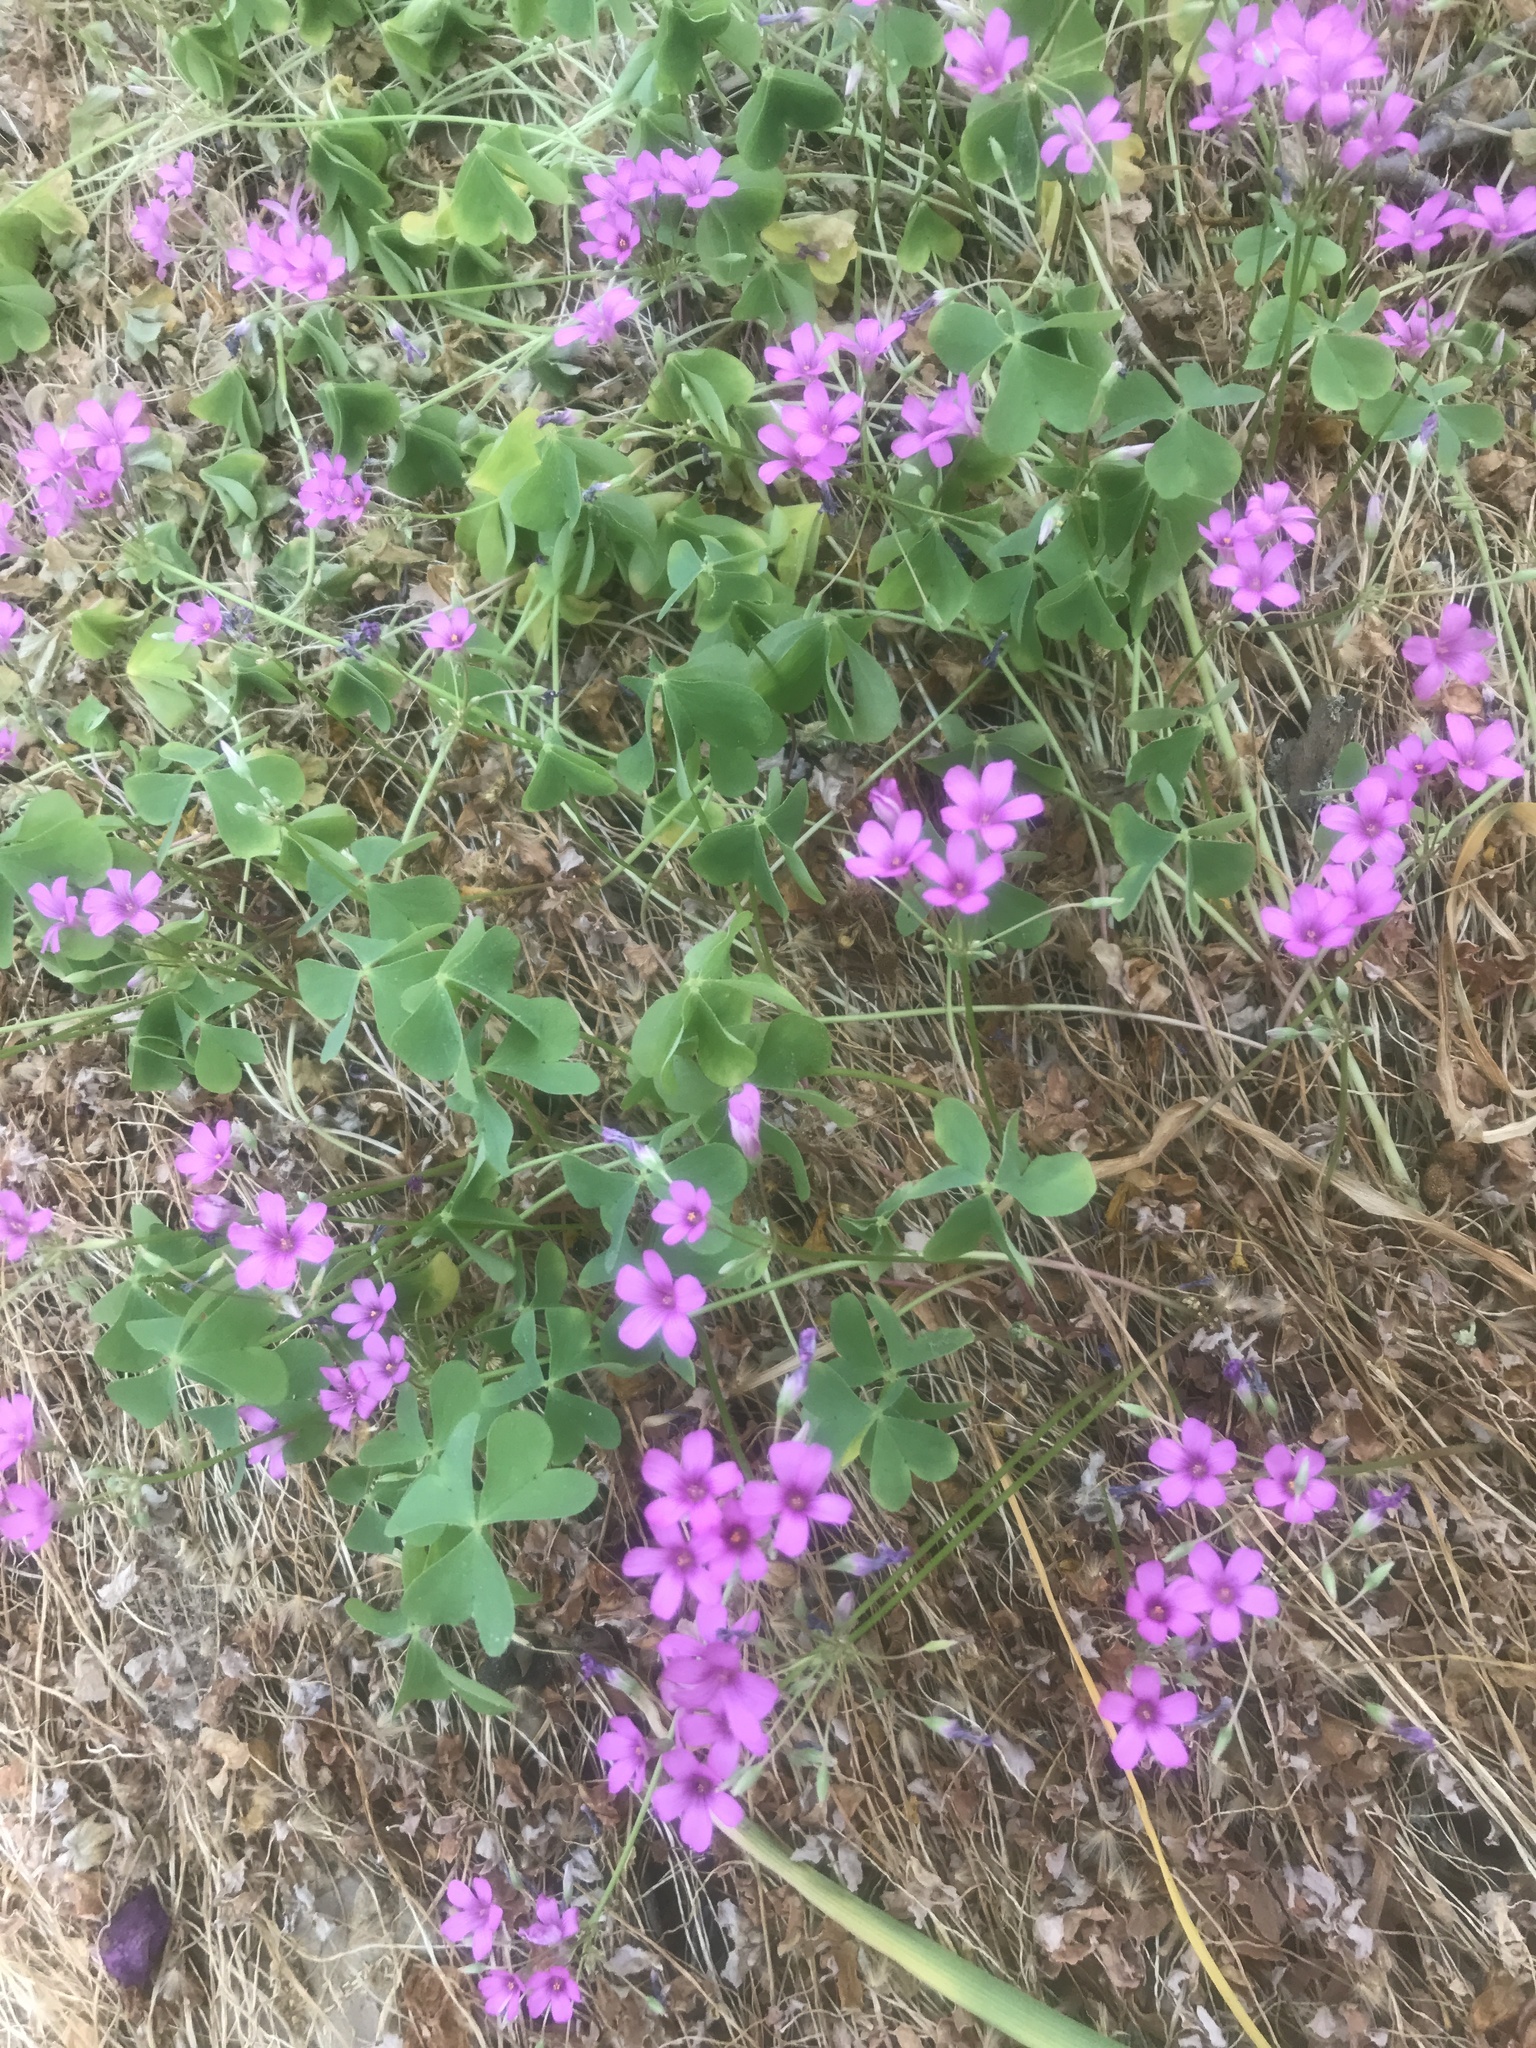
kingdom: Plantae
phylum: Tracheophyta
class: Magnoliopsida
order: Oxalidales
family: Oxalidaceae
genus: Oxalis
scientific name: Oxalis articulata
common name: Pink-sorrel
